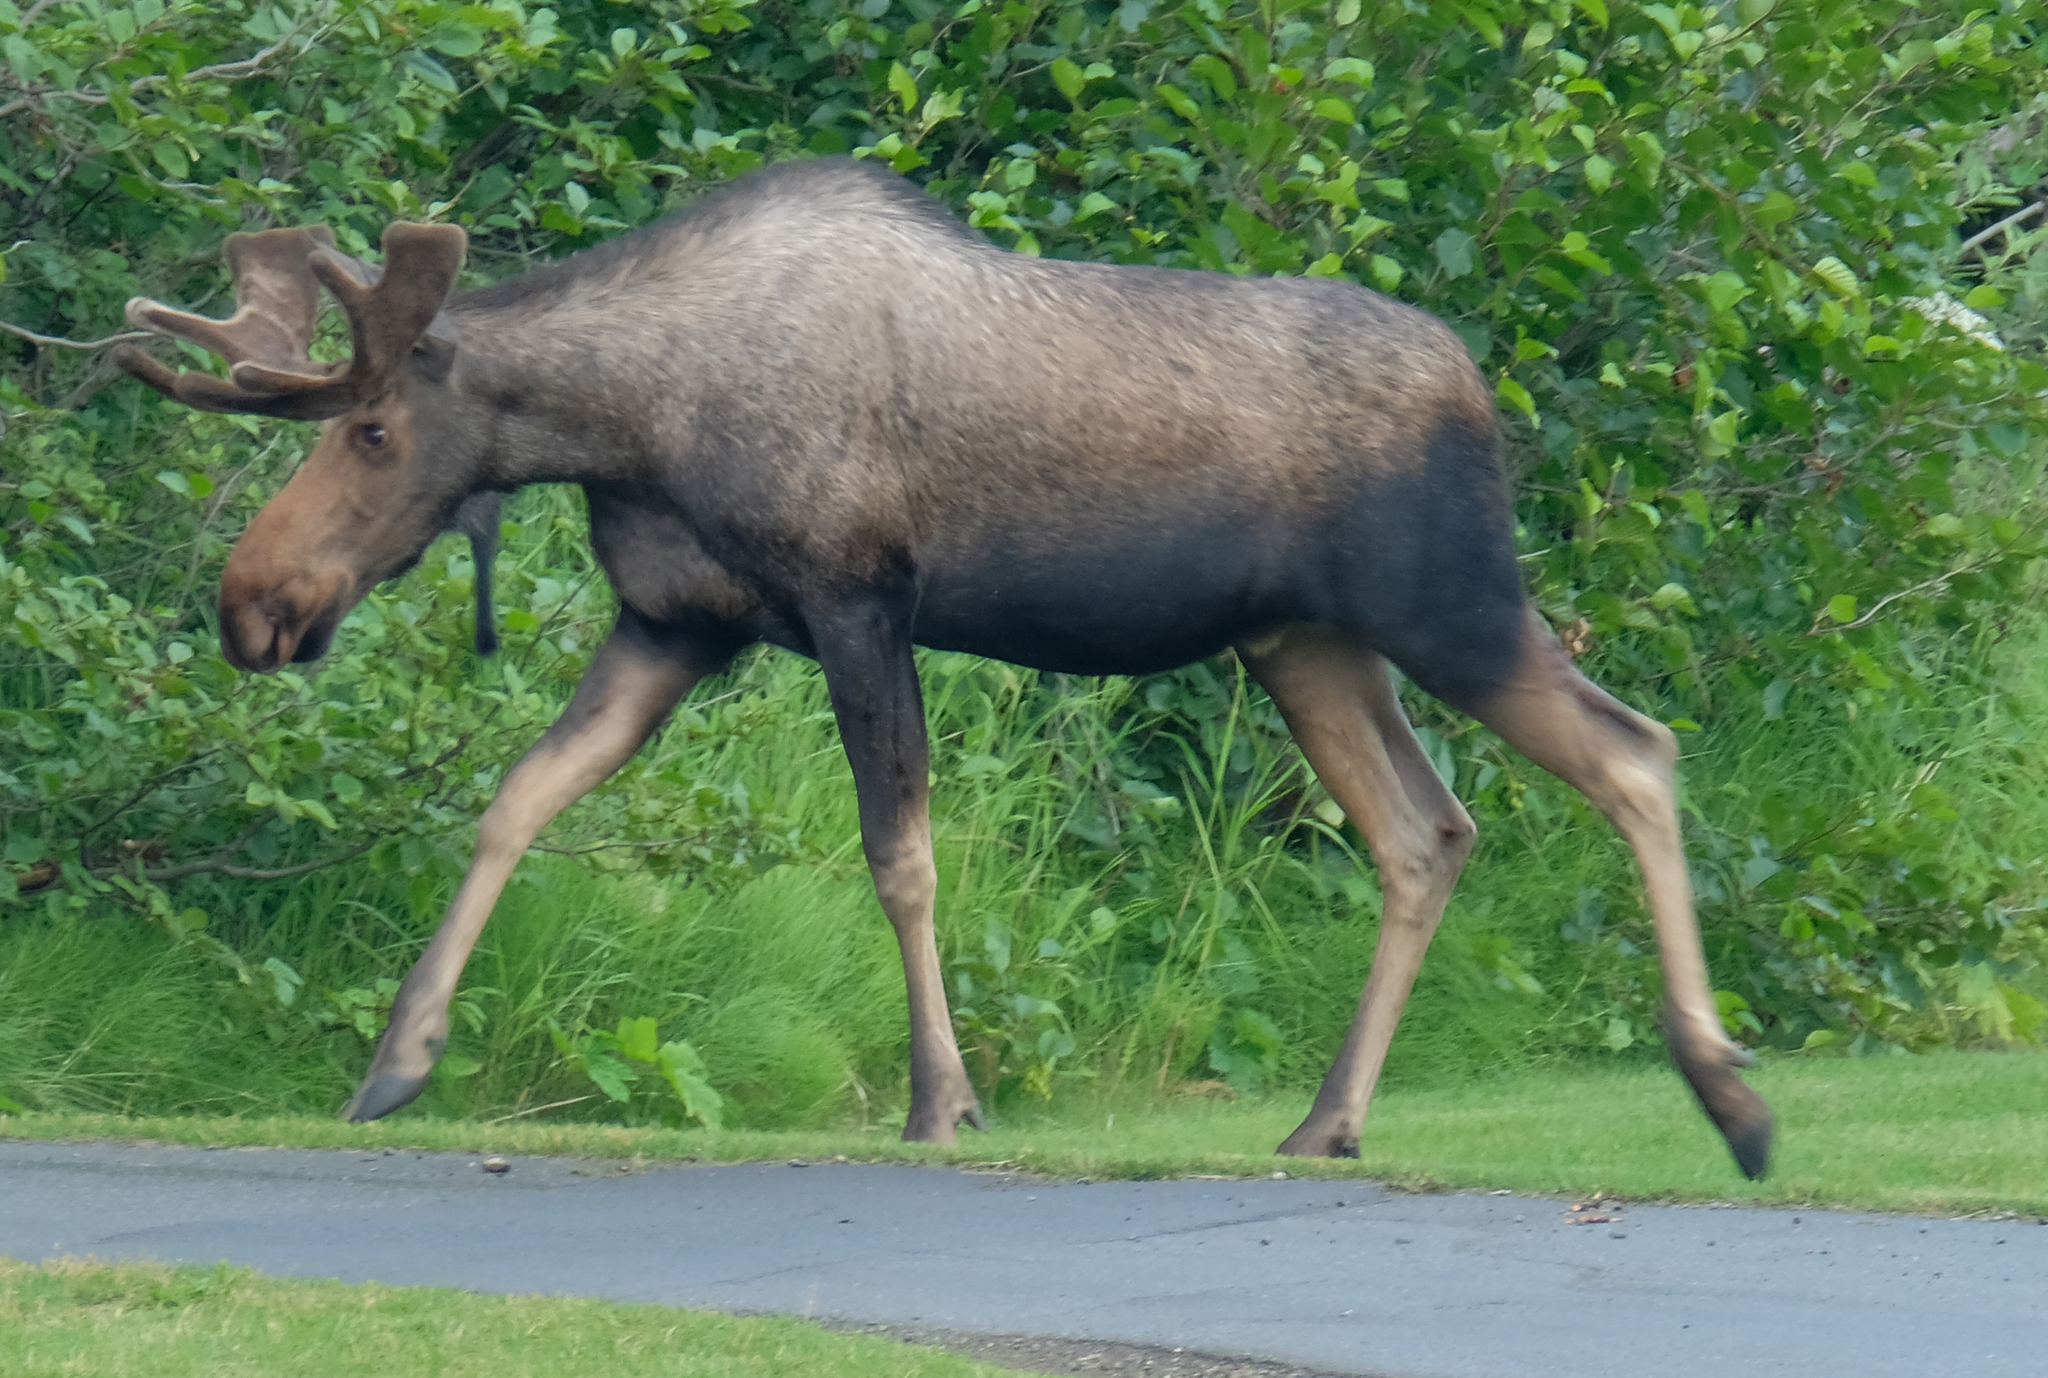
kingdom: Animalia
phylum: Chordata
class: Mammalia
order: Artiodactyla
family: Cervidae
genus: Alces
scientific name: Alces alces
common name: Moose
